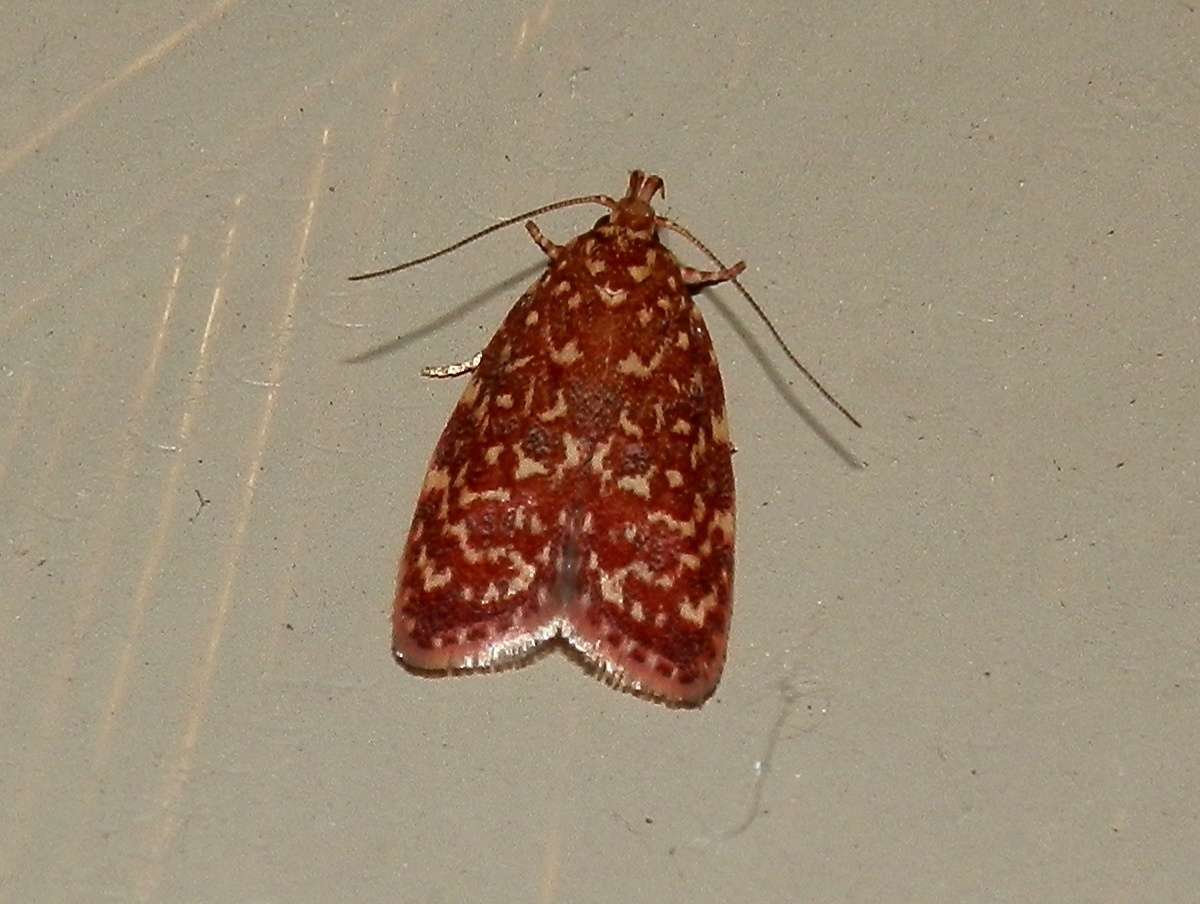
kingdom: Animalia
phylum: Arthropoda
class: Insecta
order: Lepidoptera
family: Oecophoridae
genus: Syringoseca
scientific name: Syringoseca rhodoxantha
